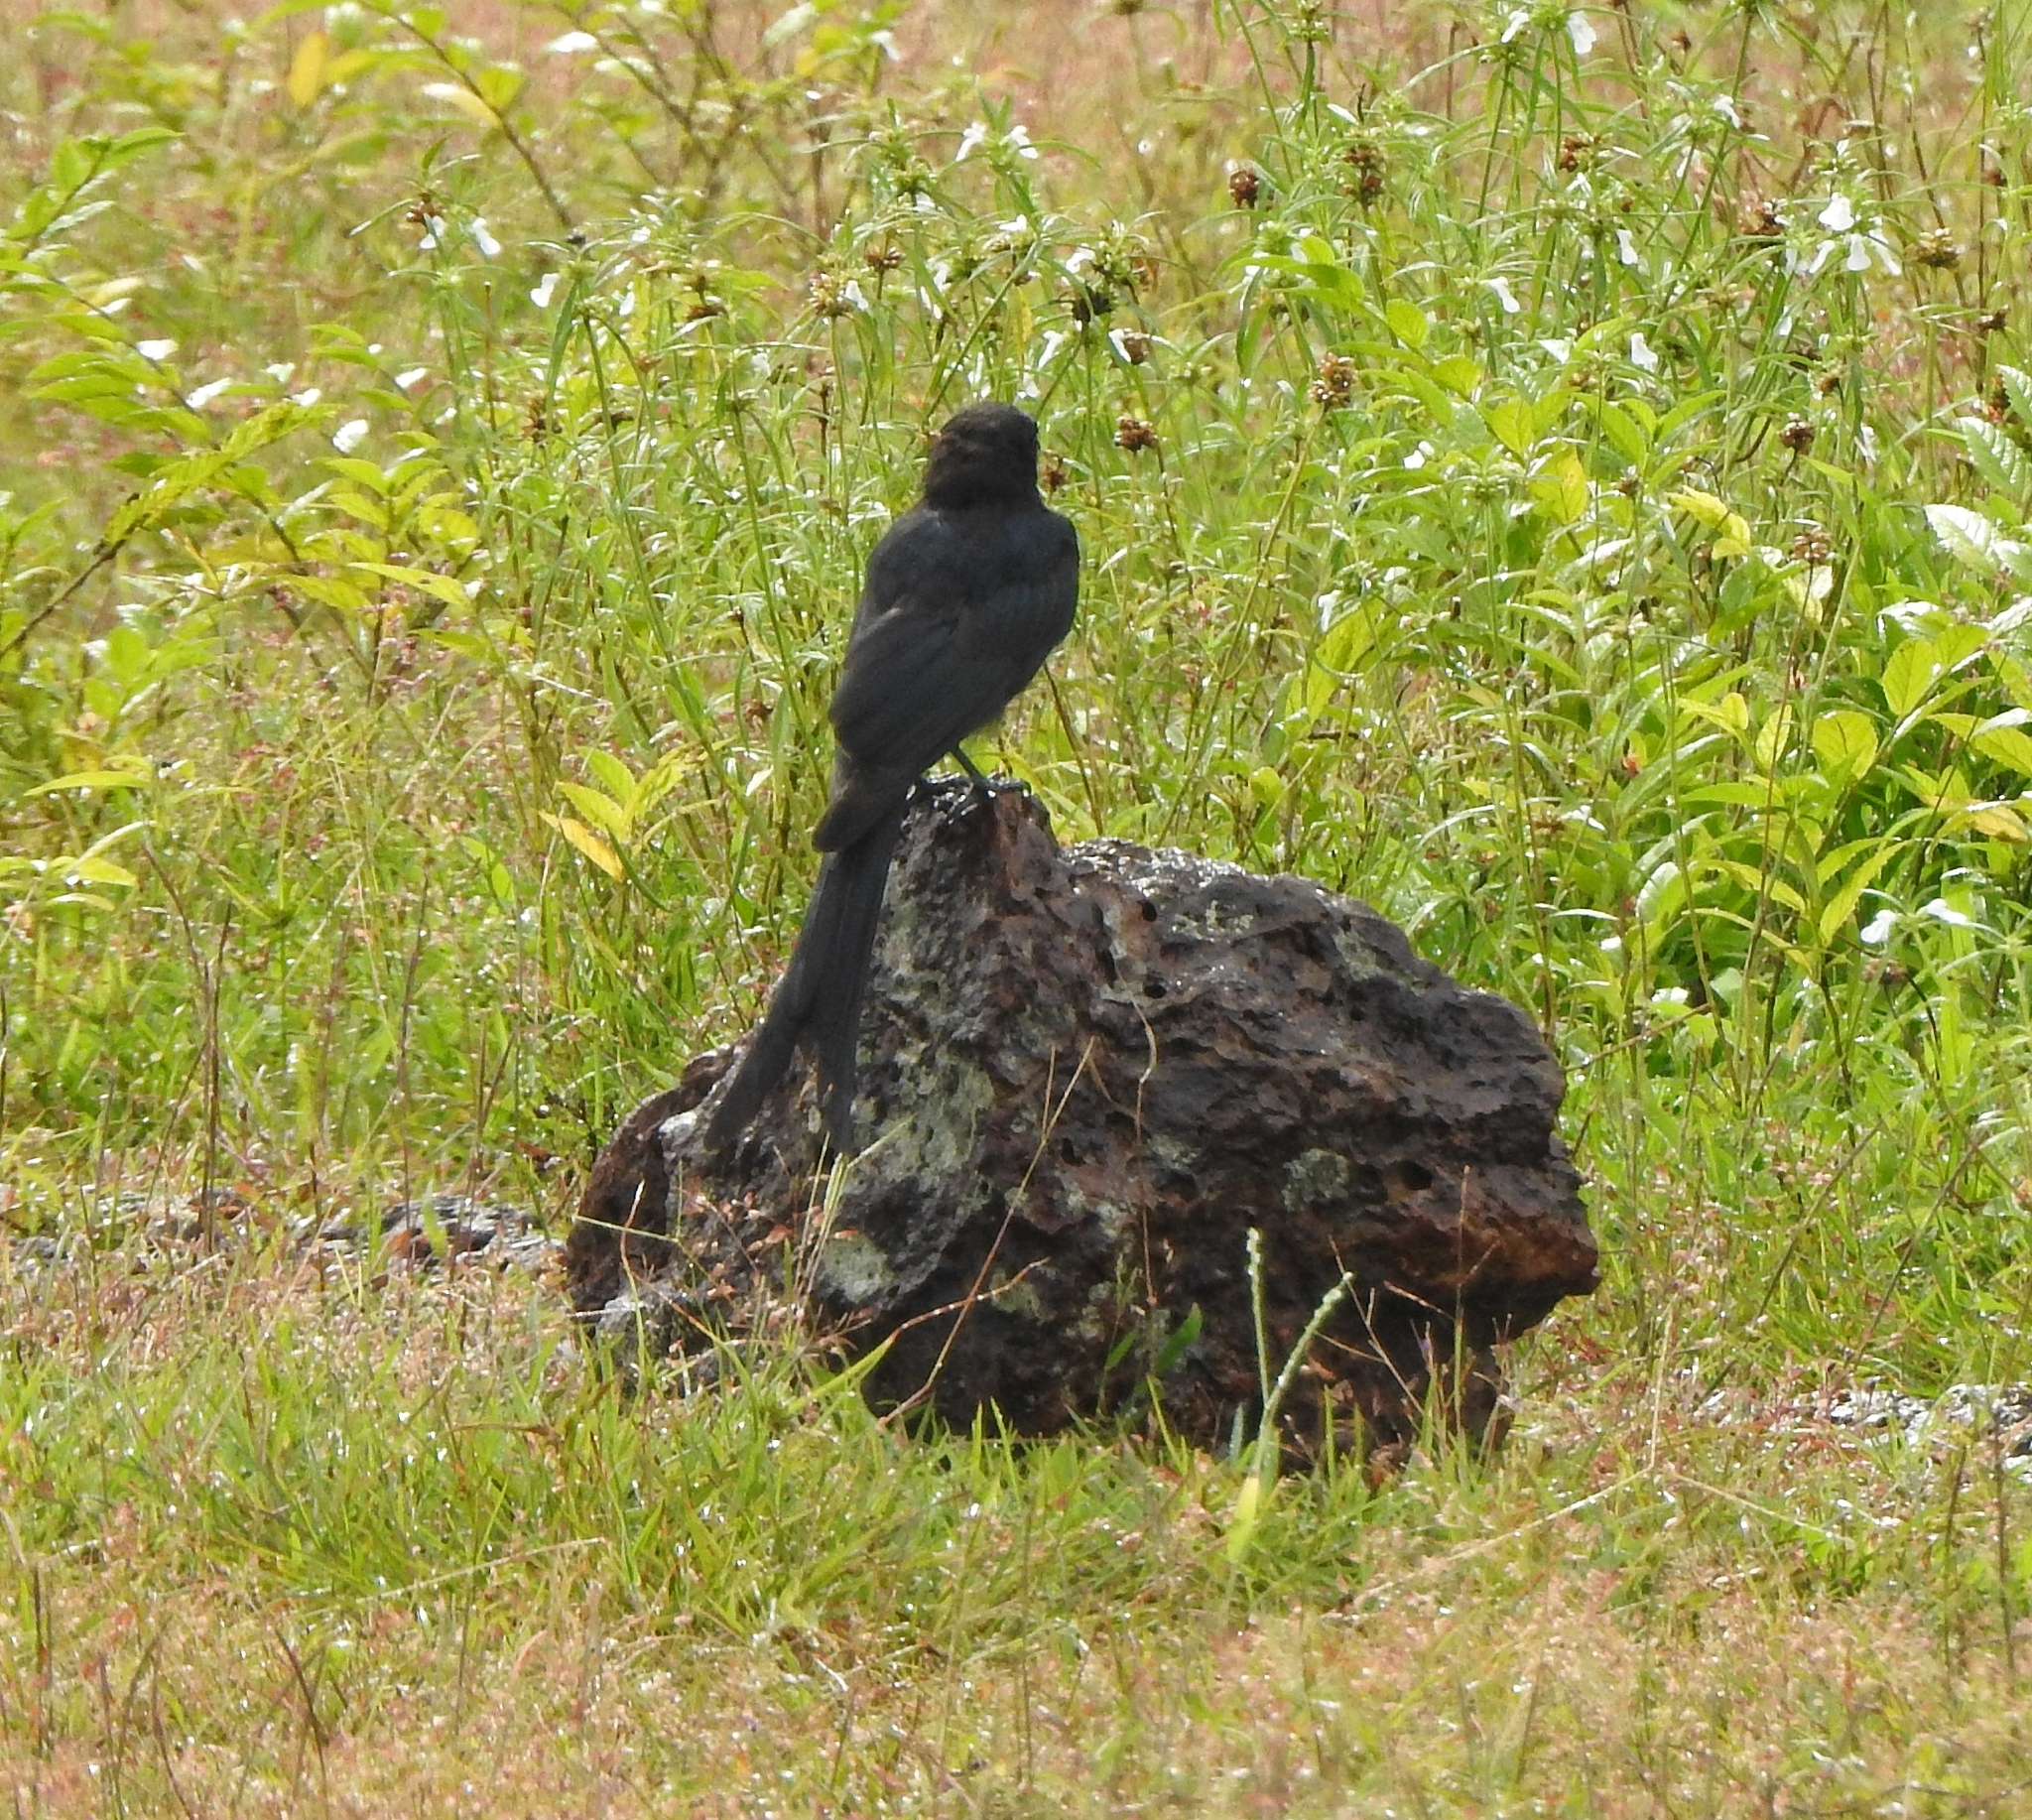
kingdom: Animalia
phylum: Chordata
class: Aves
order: Passeriformes
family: Dicruridae
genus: Dicrurus
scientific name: Dicrurus macrocercus
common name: Black drongo
